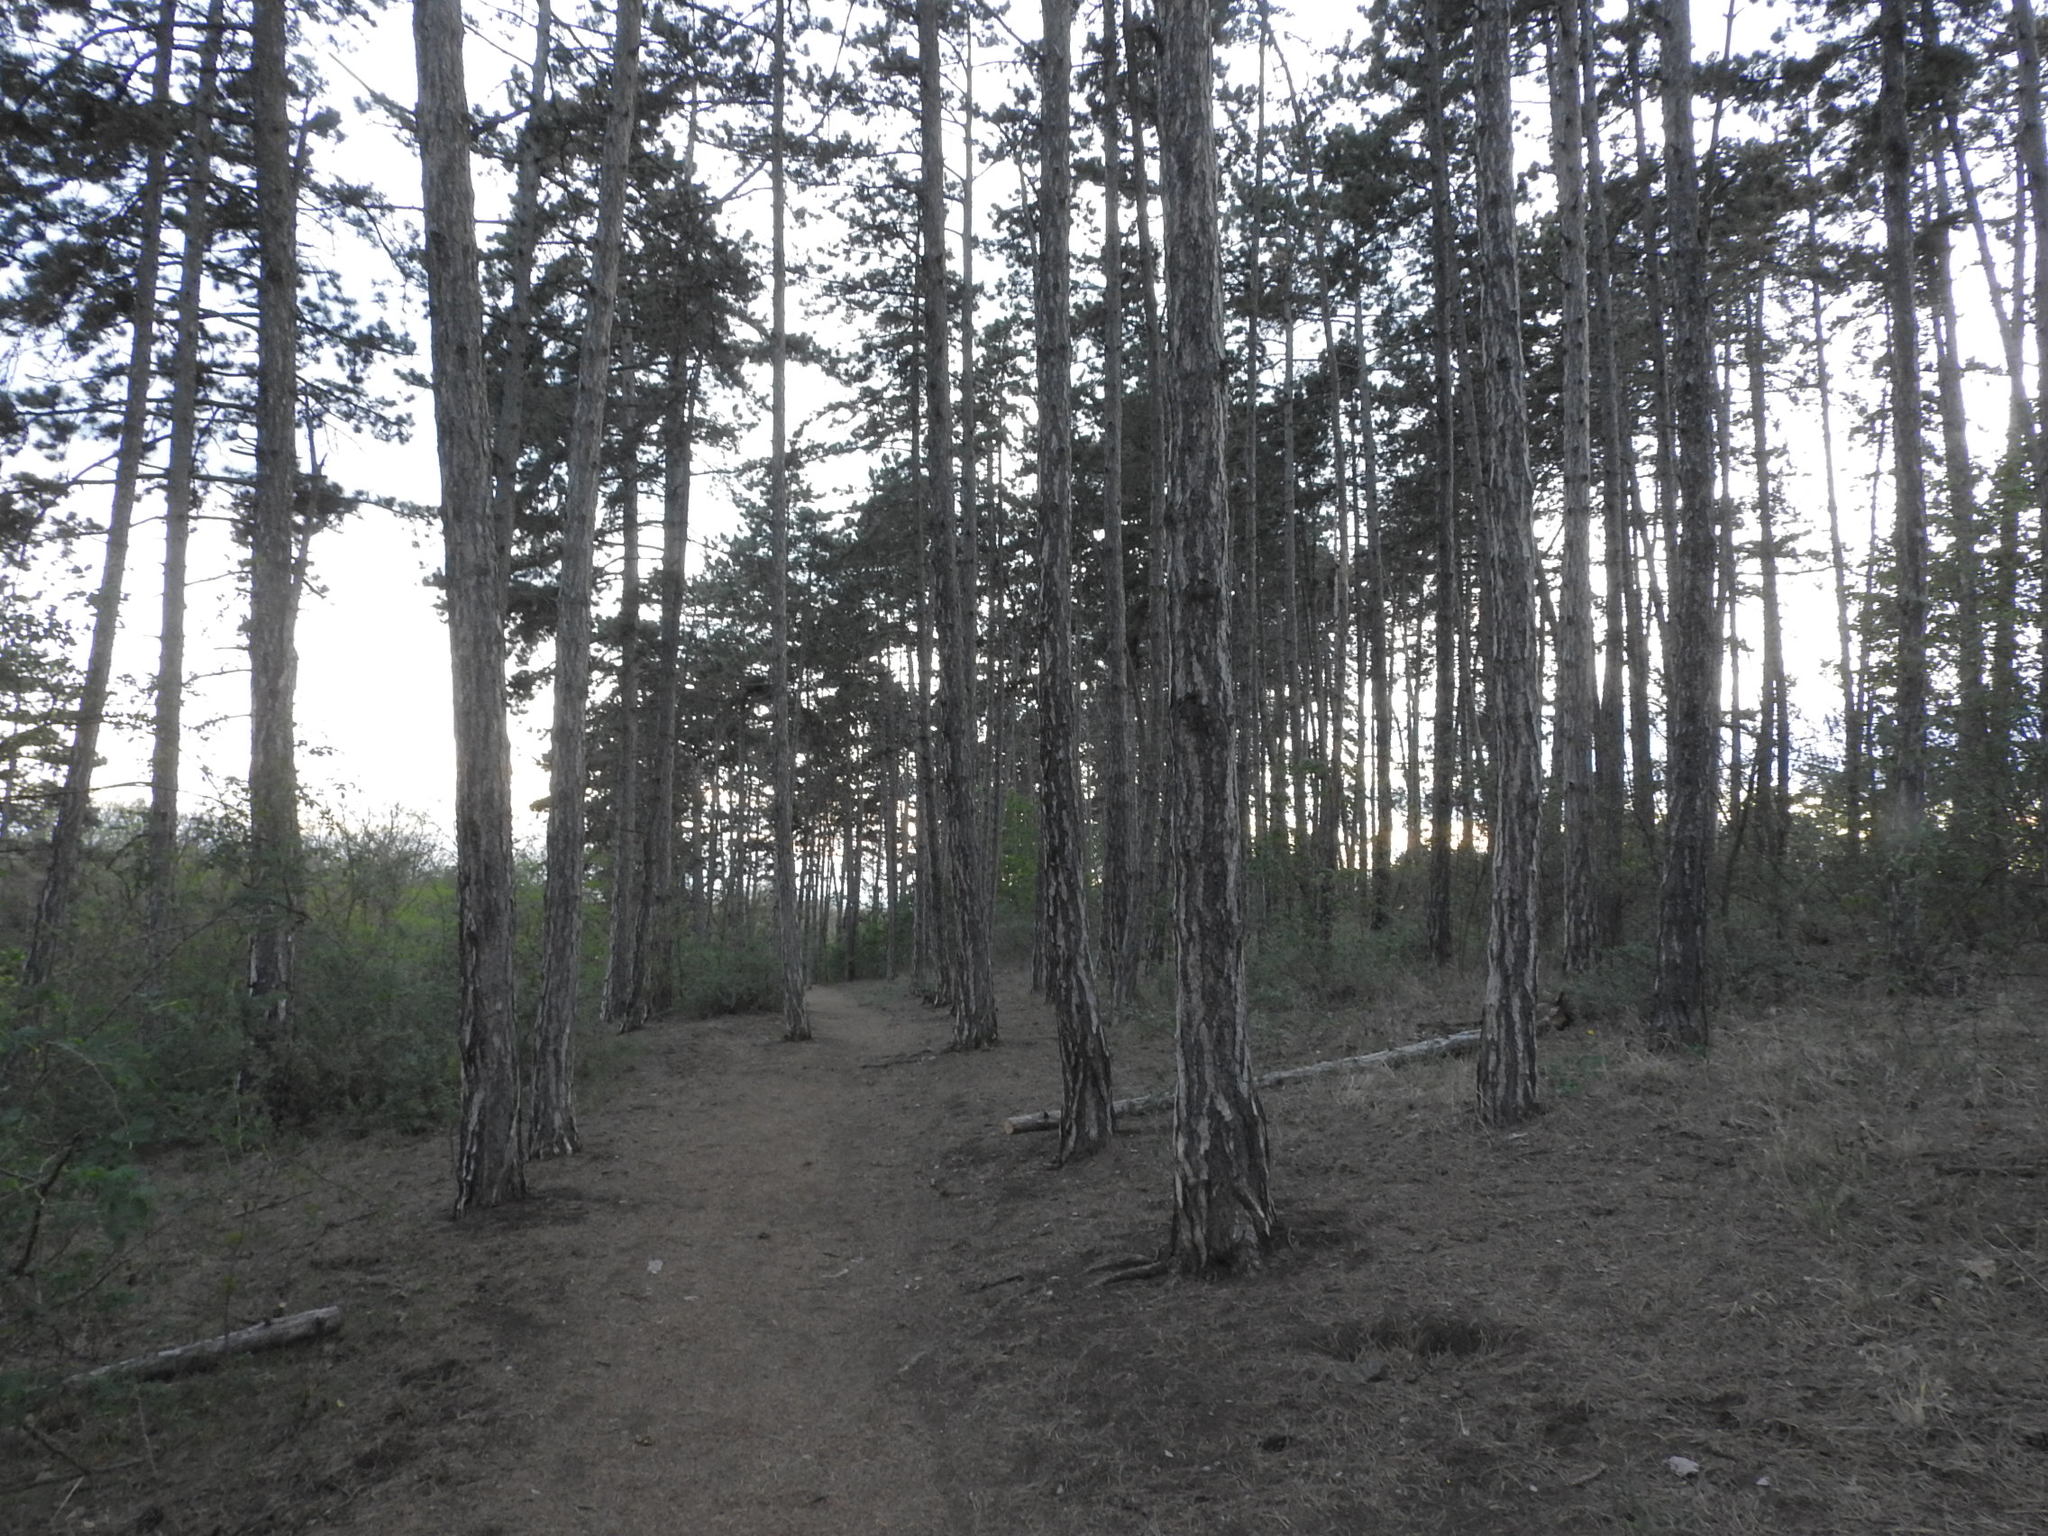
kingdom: Plantae
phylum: Tracheophyta
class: Pinopsida
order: Pinales
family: Pinaceae
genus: Pinus
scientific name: Pinus sylvestris
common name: Scots pine
